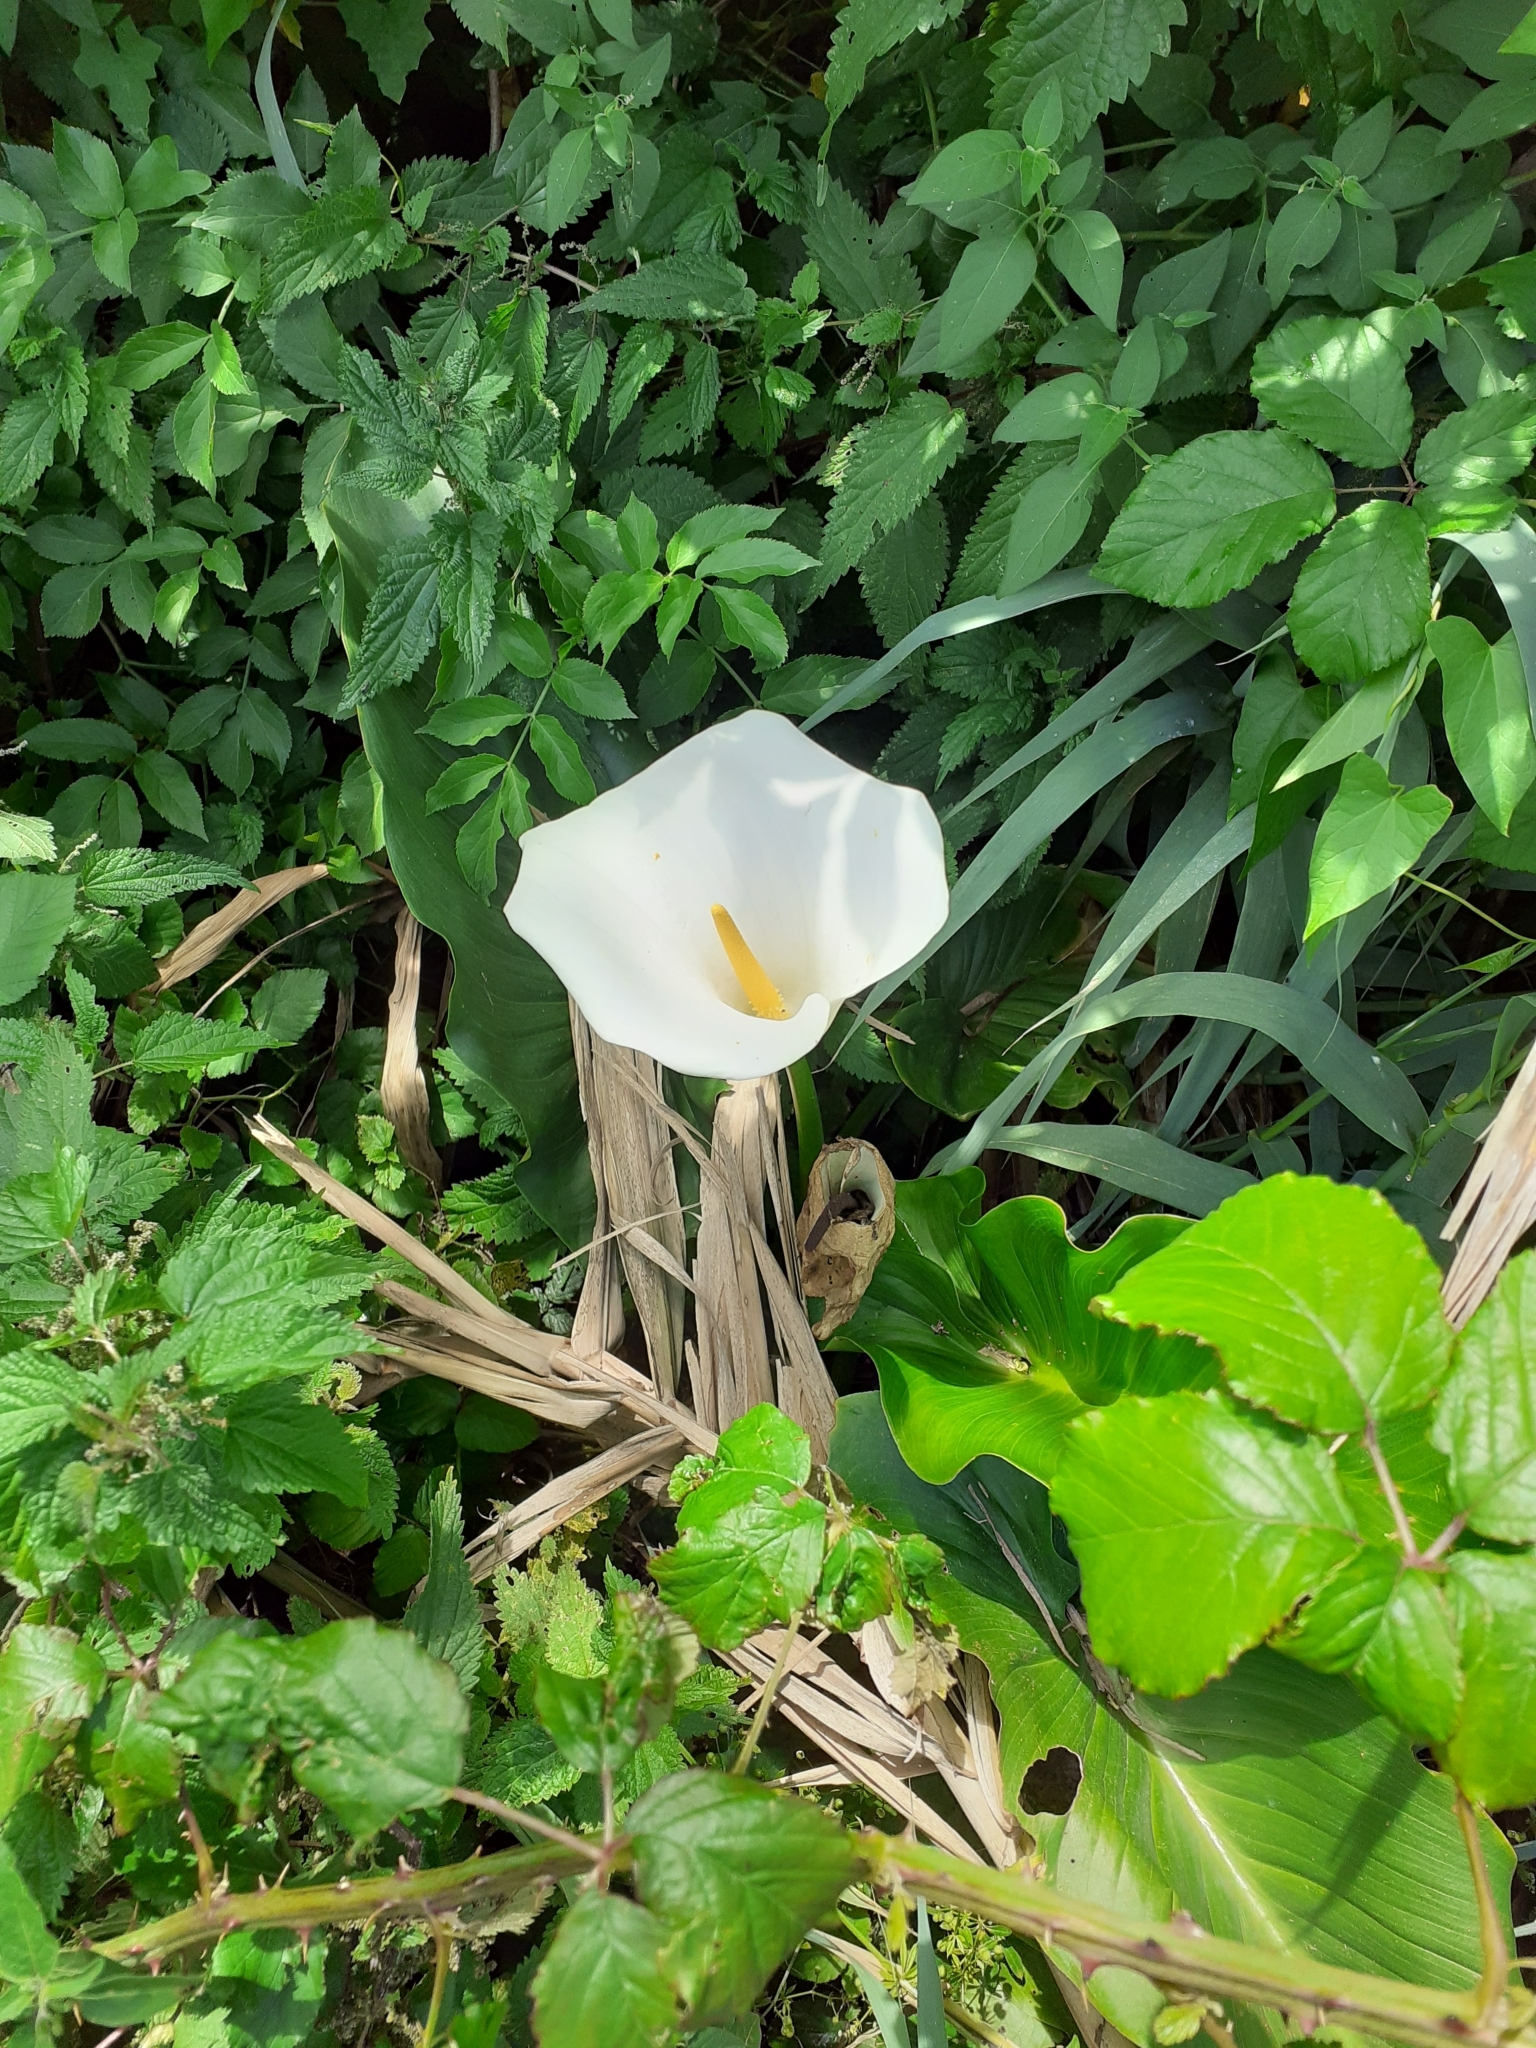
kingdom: Plantae
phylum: Tracheophyta
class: Liliopsida
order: Alismatales
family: Araceae
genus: Zantedeschia
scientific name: Zantedeschia aethiopica
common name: Altar-lily
